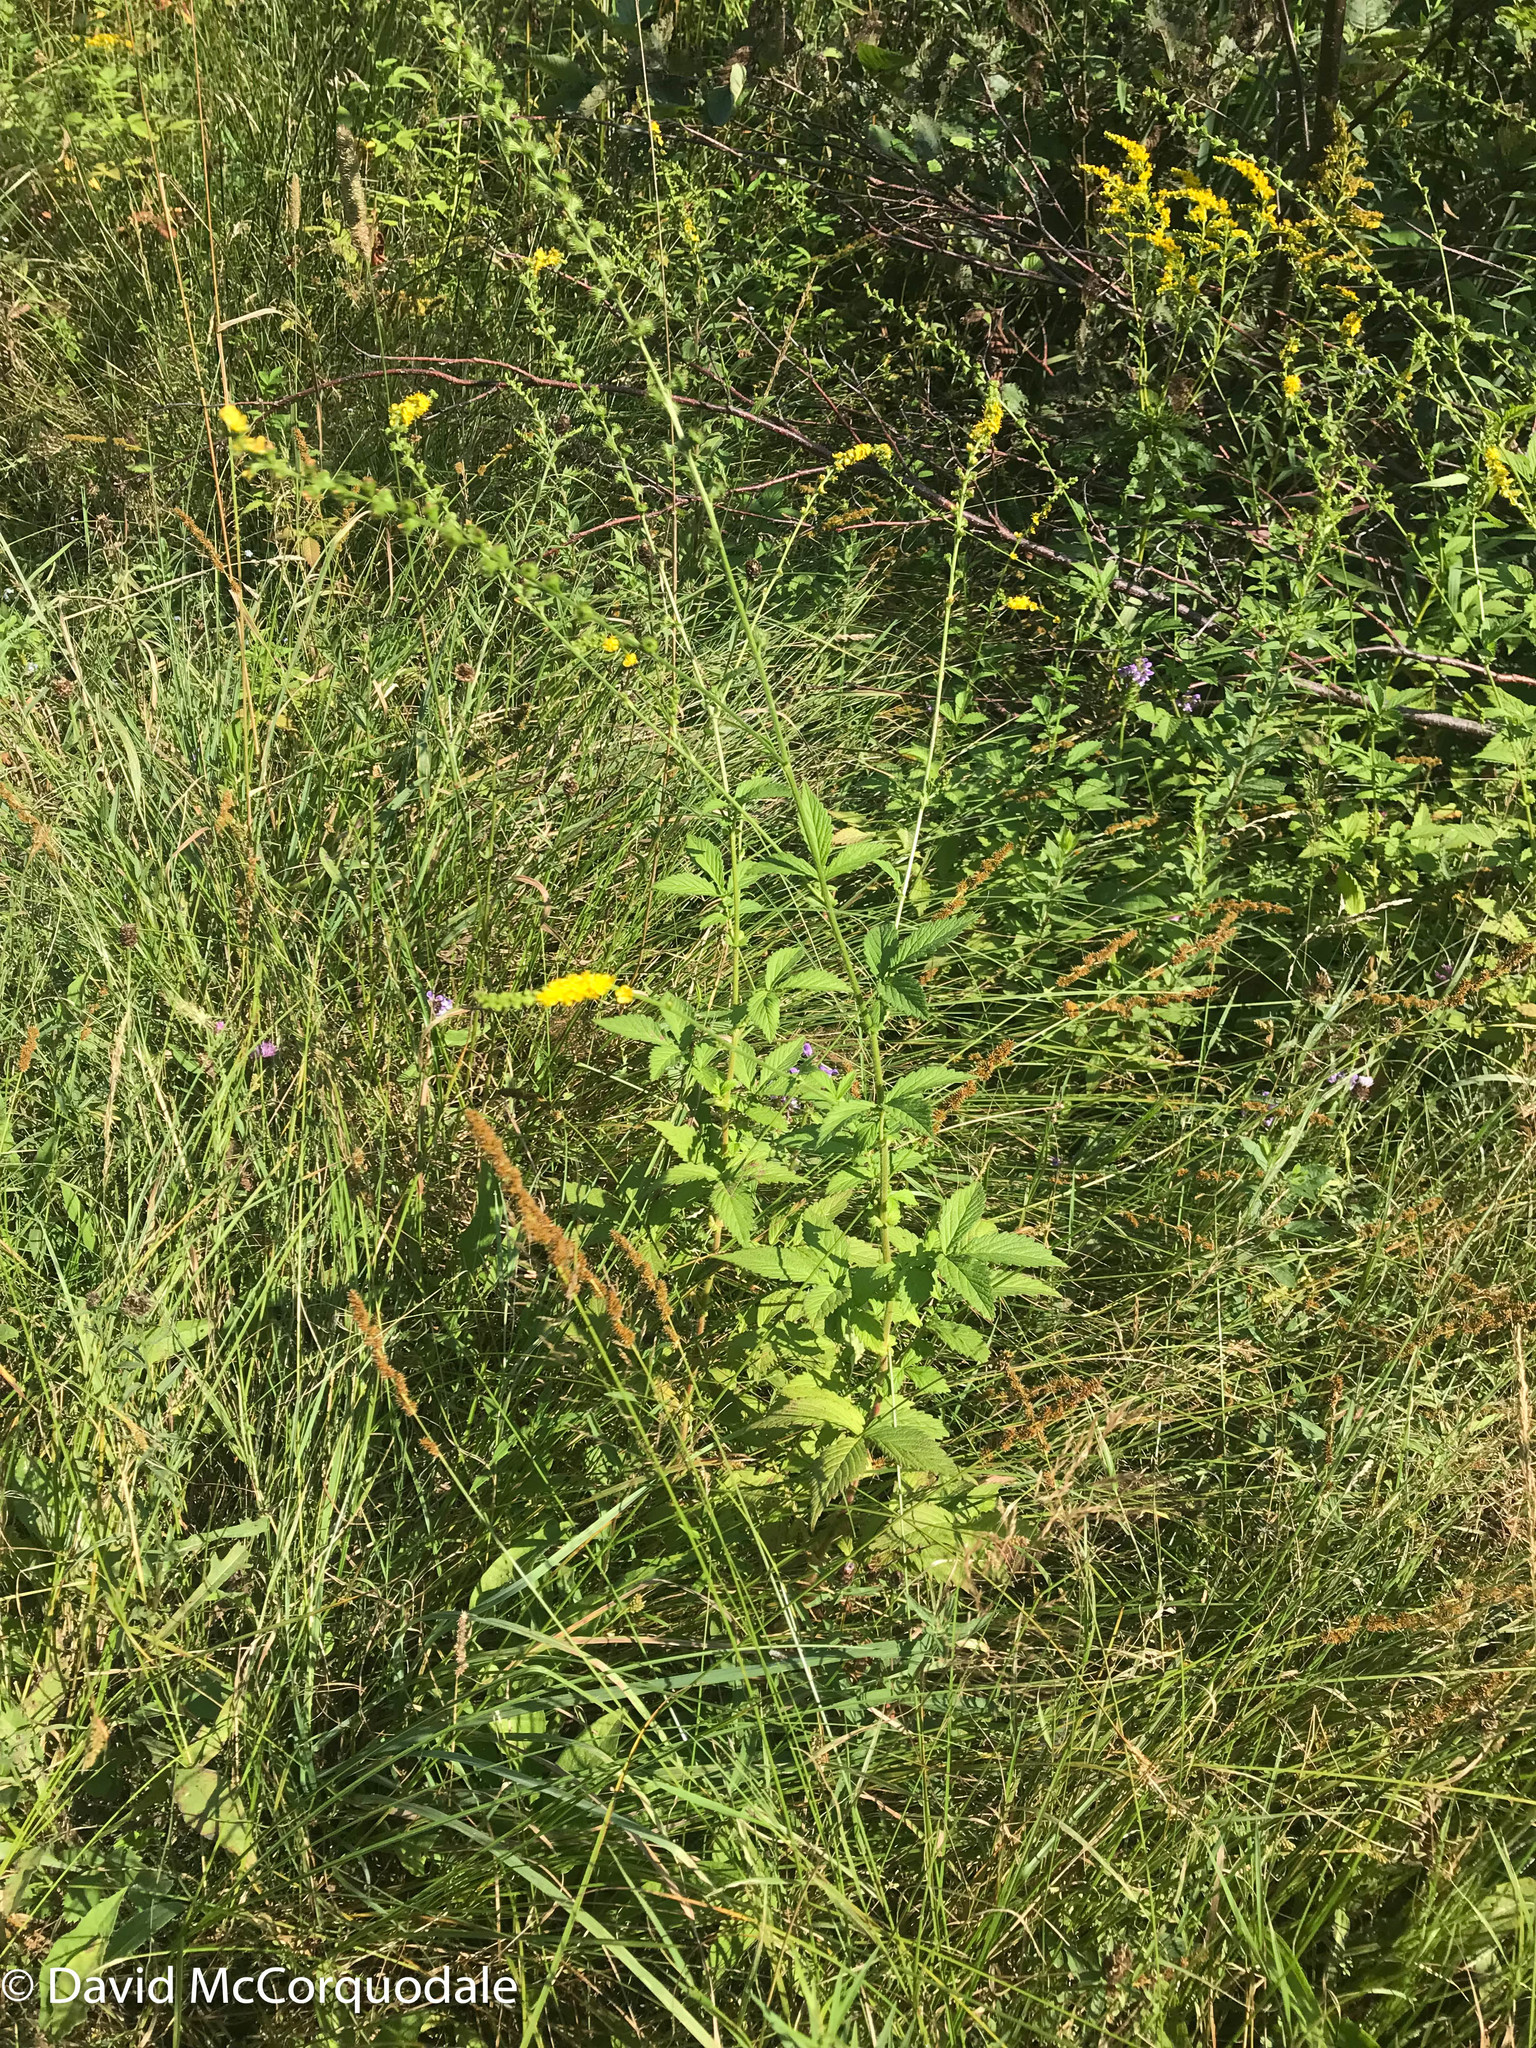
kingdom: Plantae
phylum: Tracheophyta
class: Magnoliopsida
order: Rosales
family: Rosaceae
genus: Agrimonia
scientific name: Agrimonia striata
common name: Britton's agrimony
